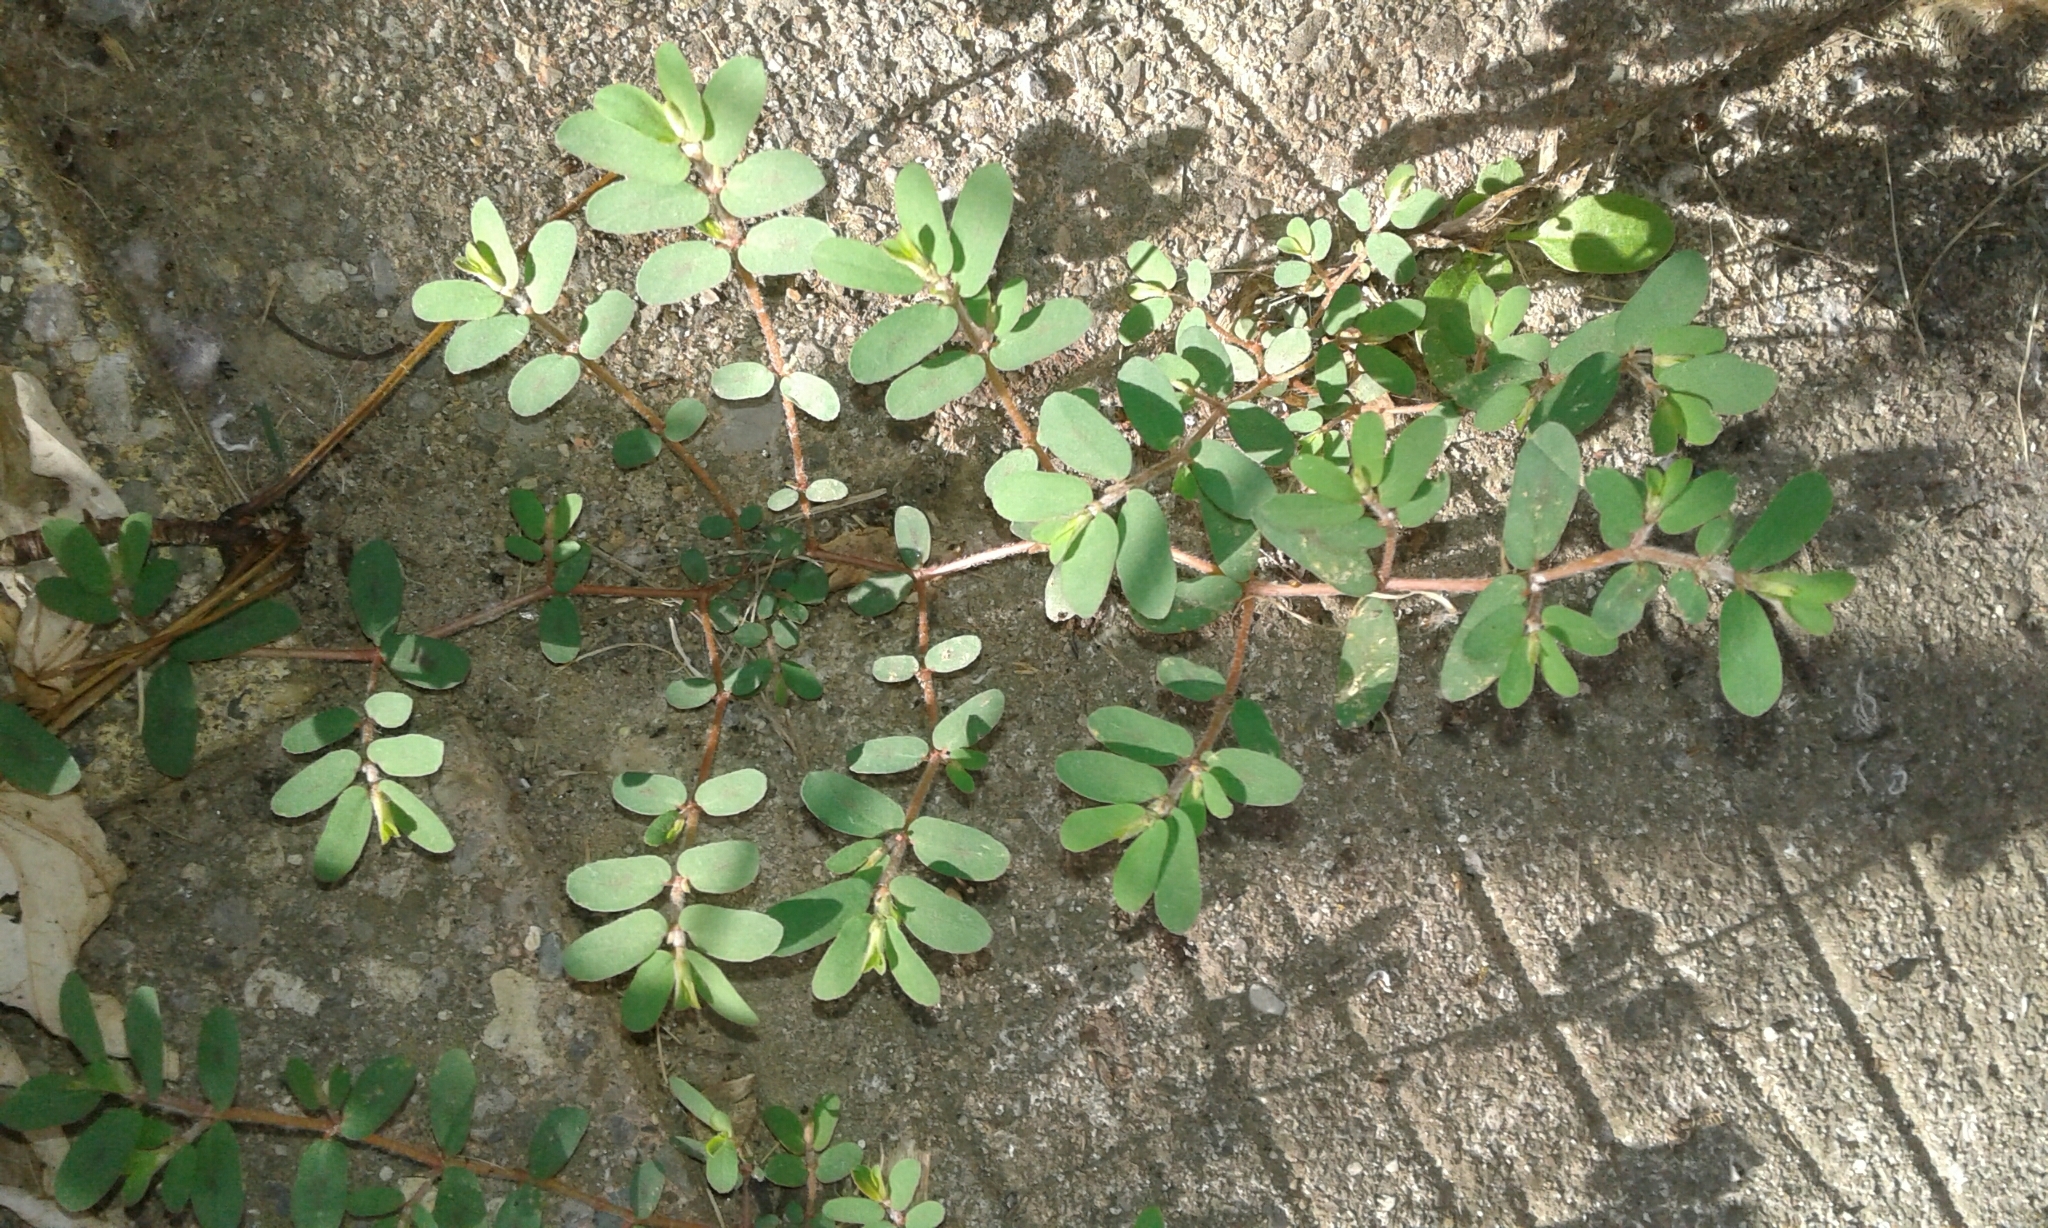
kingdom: Plantae
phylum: Tracheophyta
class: Magnoliopsida
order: Malpighiales
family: Euphorbiaceae
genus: Euphorbia
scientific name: Euphorbia maculata
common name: Spotted spurge
